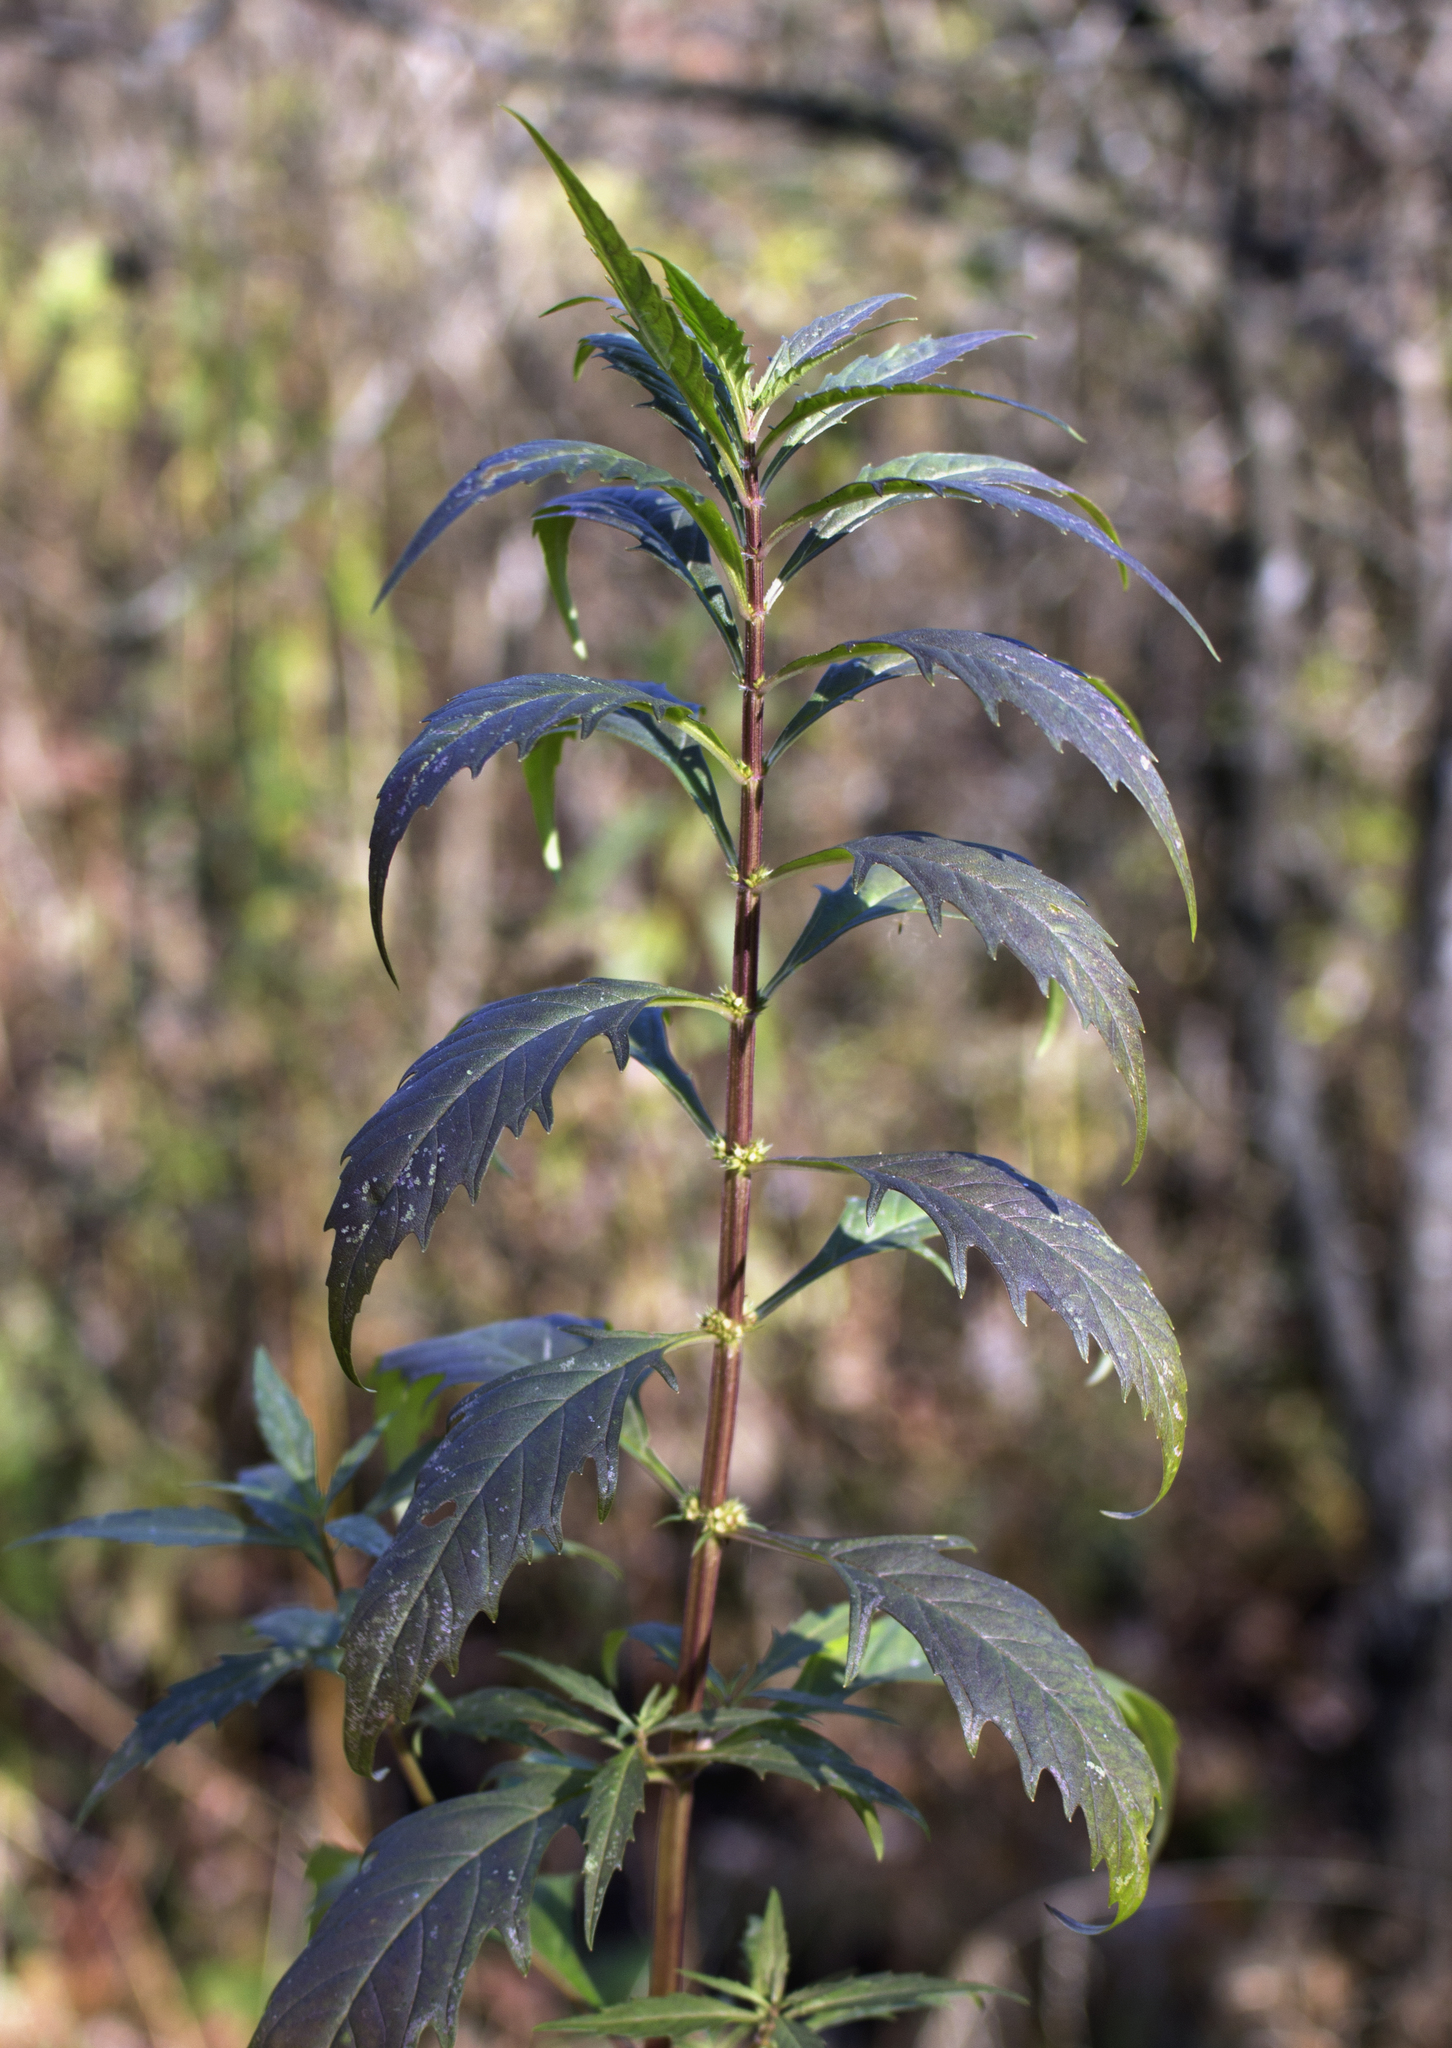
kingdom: Plantae
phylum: Tracheophyta
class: Magnoliopsida
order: Lamiales
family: Lamiaceae
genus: Lycopus
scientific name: Lycopus americanus
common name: American bugleweed
